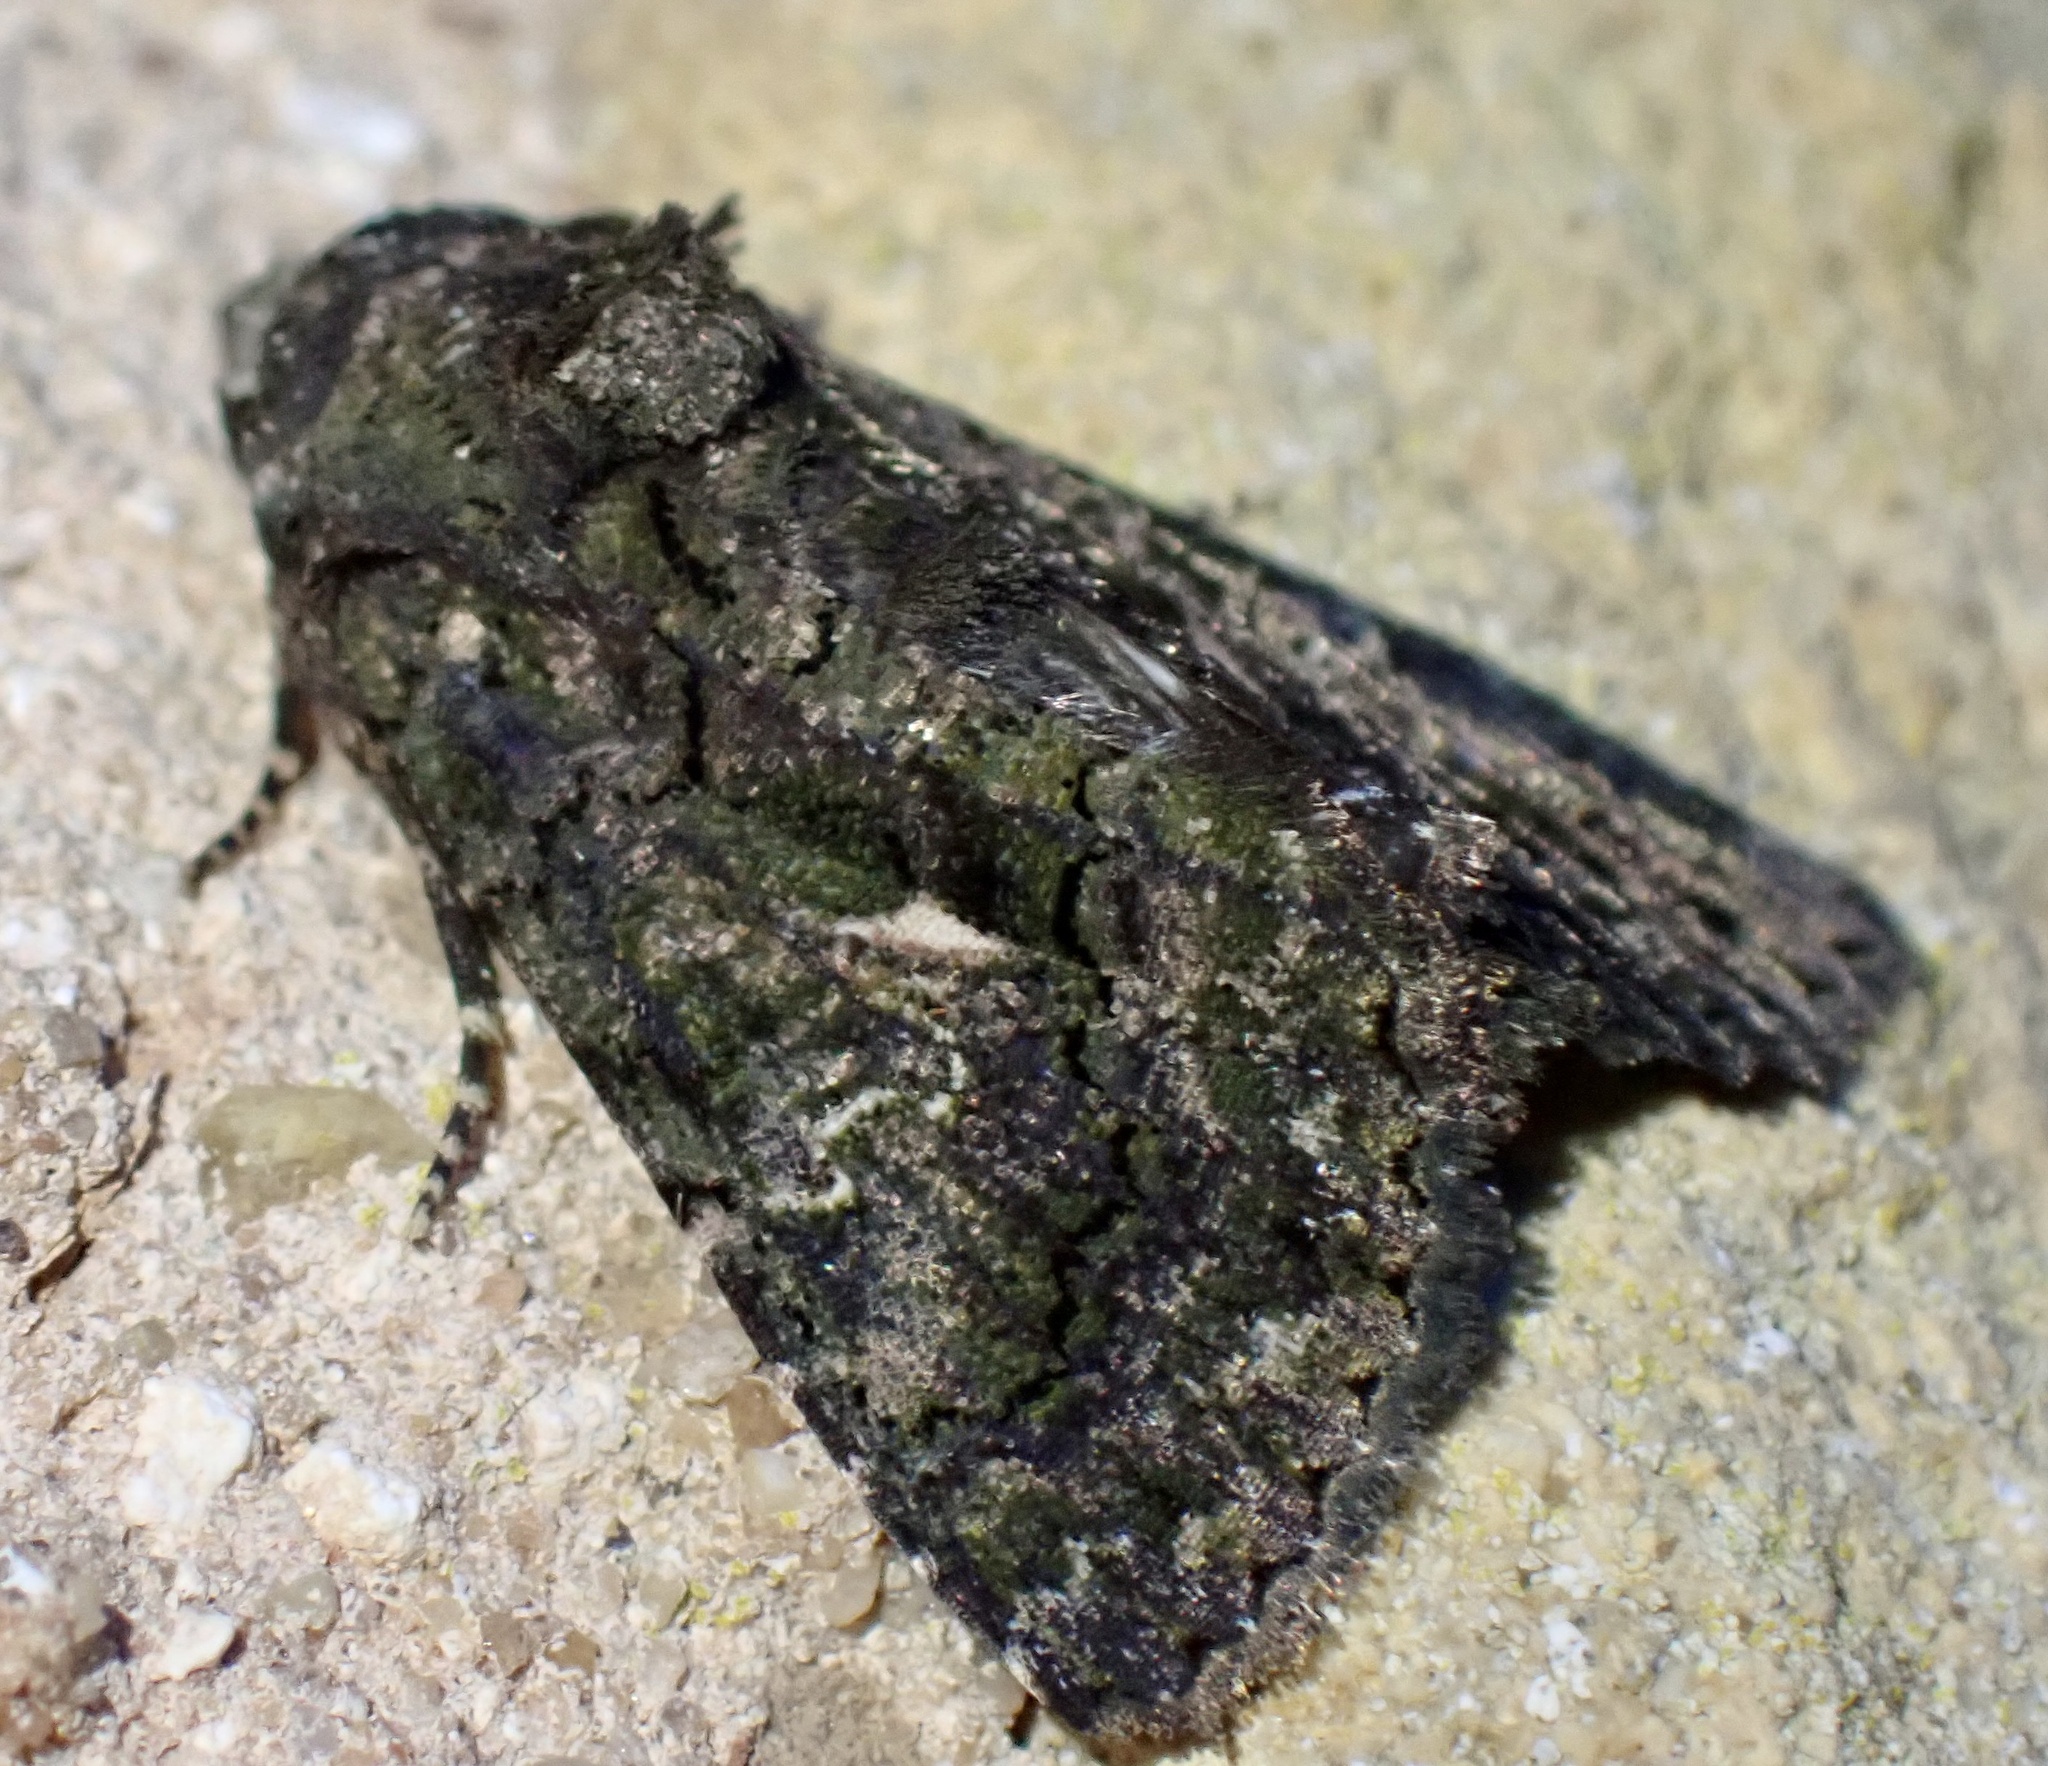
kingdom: Animalia
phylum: Arthropoda
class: Insecta
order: Lepidoptera
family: Noctuidae
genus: Aedia
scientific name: Aedia leucomelas
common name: Sorcerer
